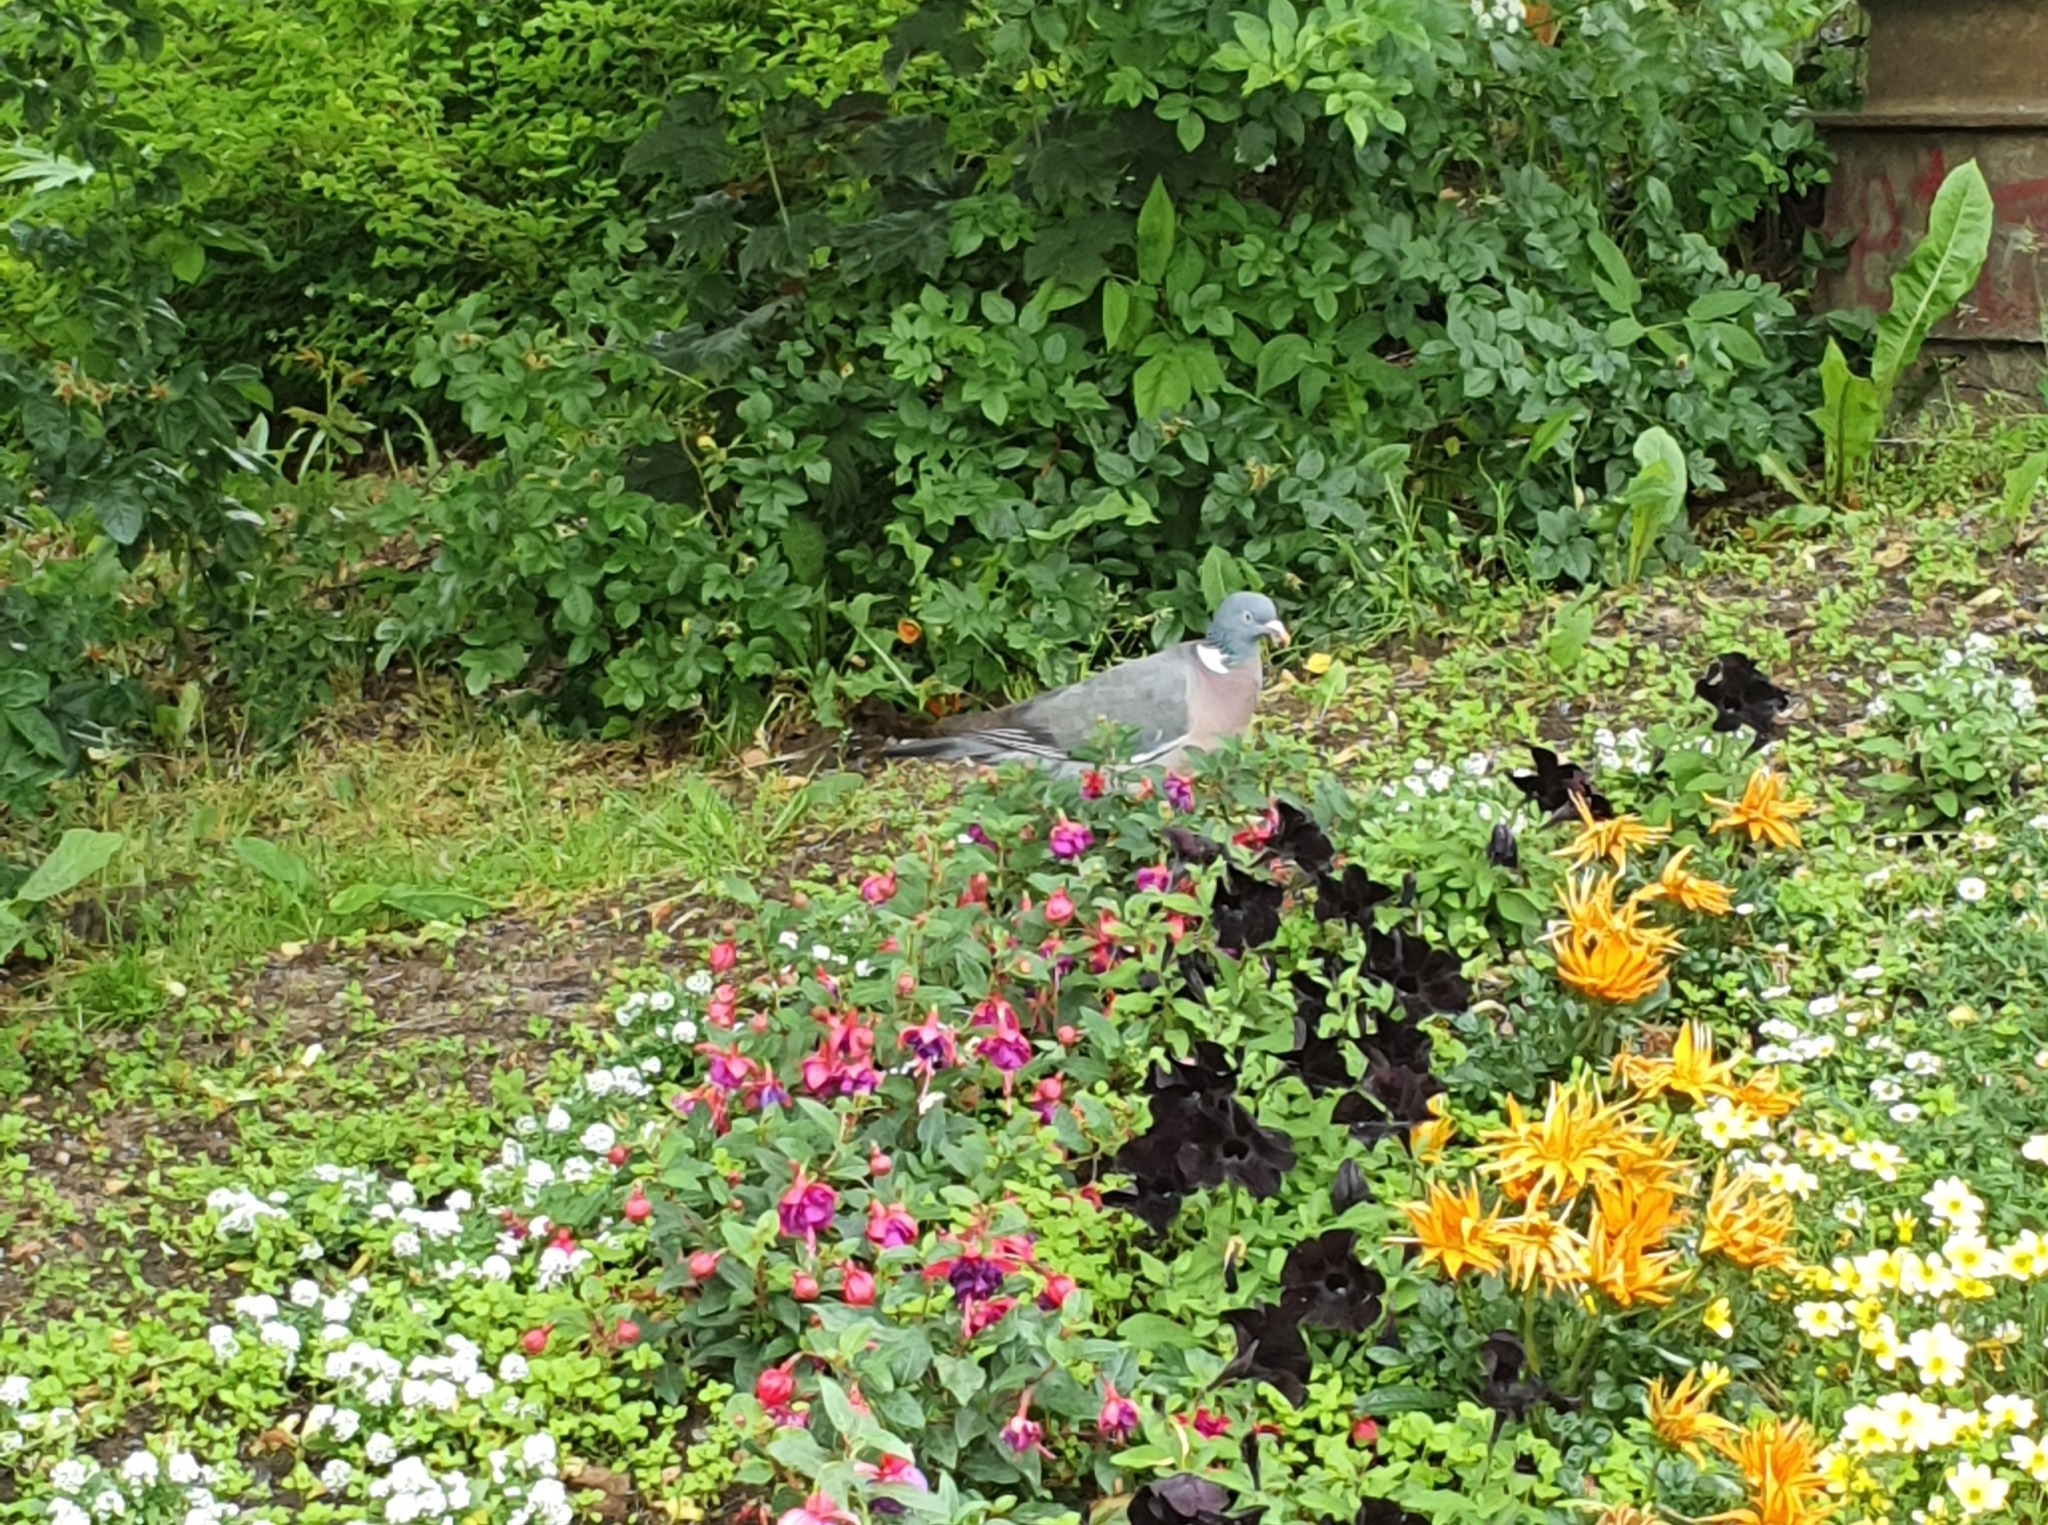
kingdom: Animalia
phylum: Chordata
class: Aves
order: Columbiformes
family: Columbidae
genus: Columba
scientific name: Columba palumbus
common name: Common wood pigeon
